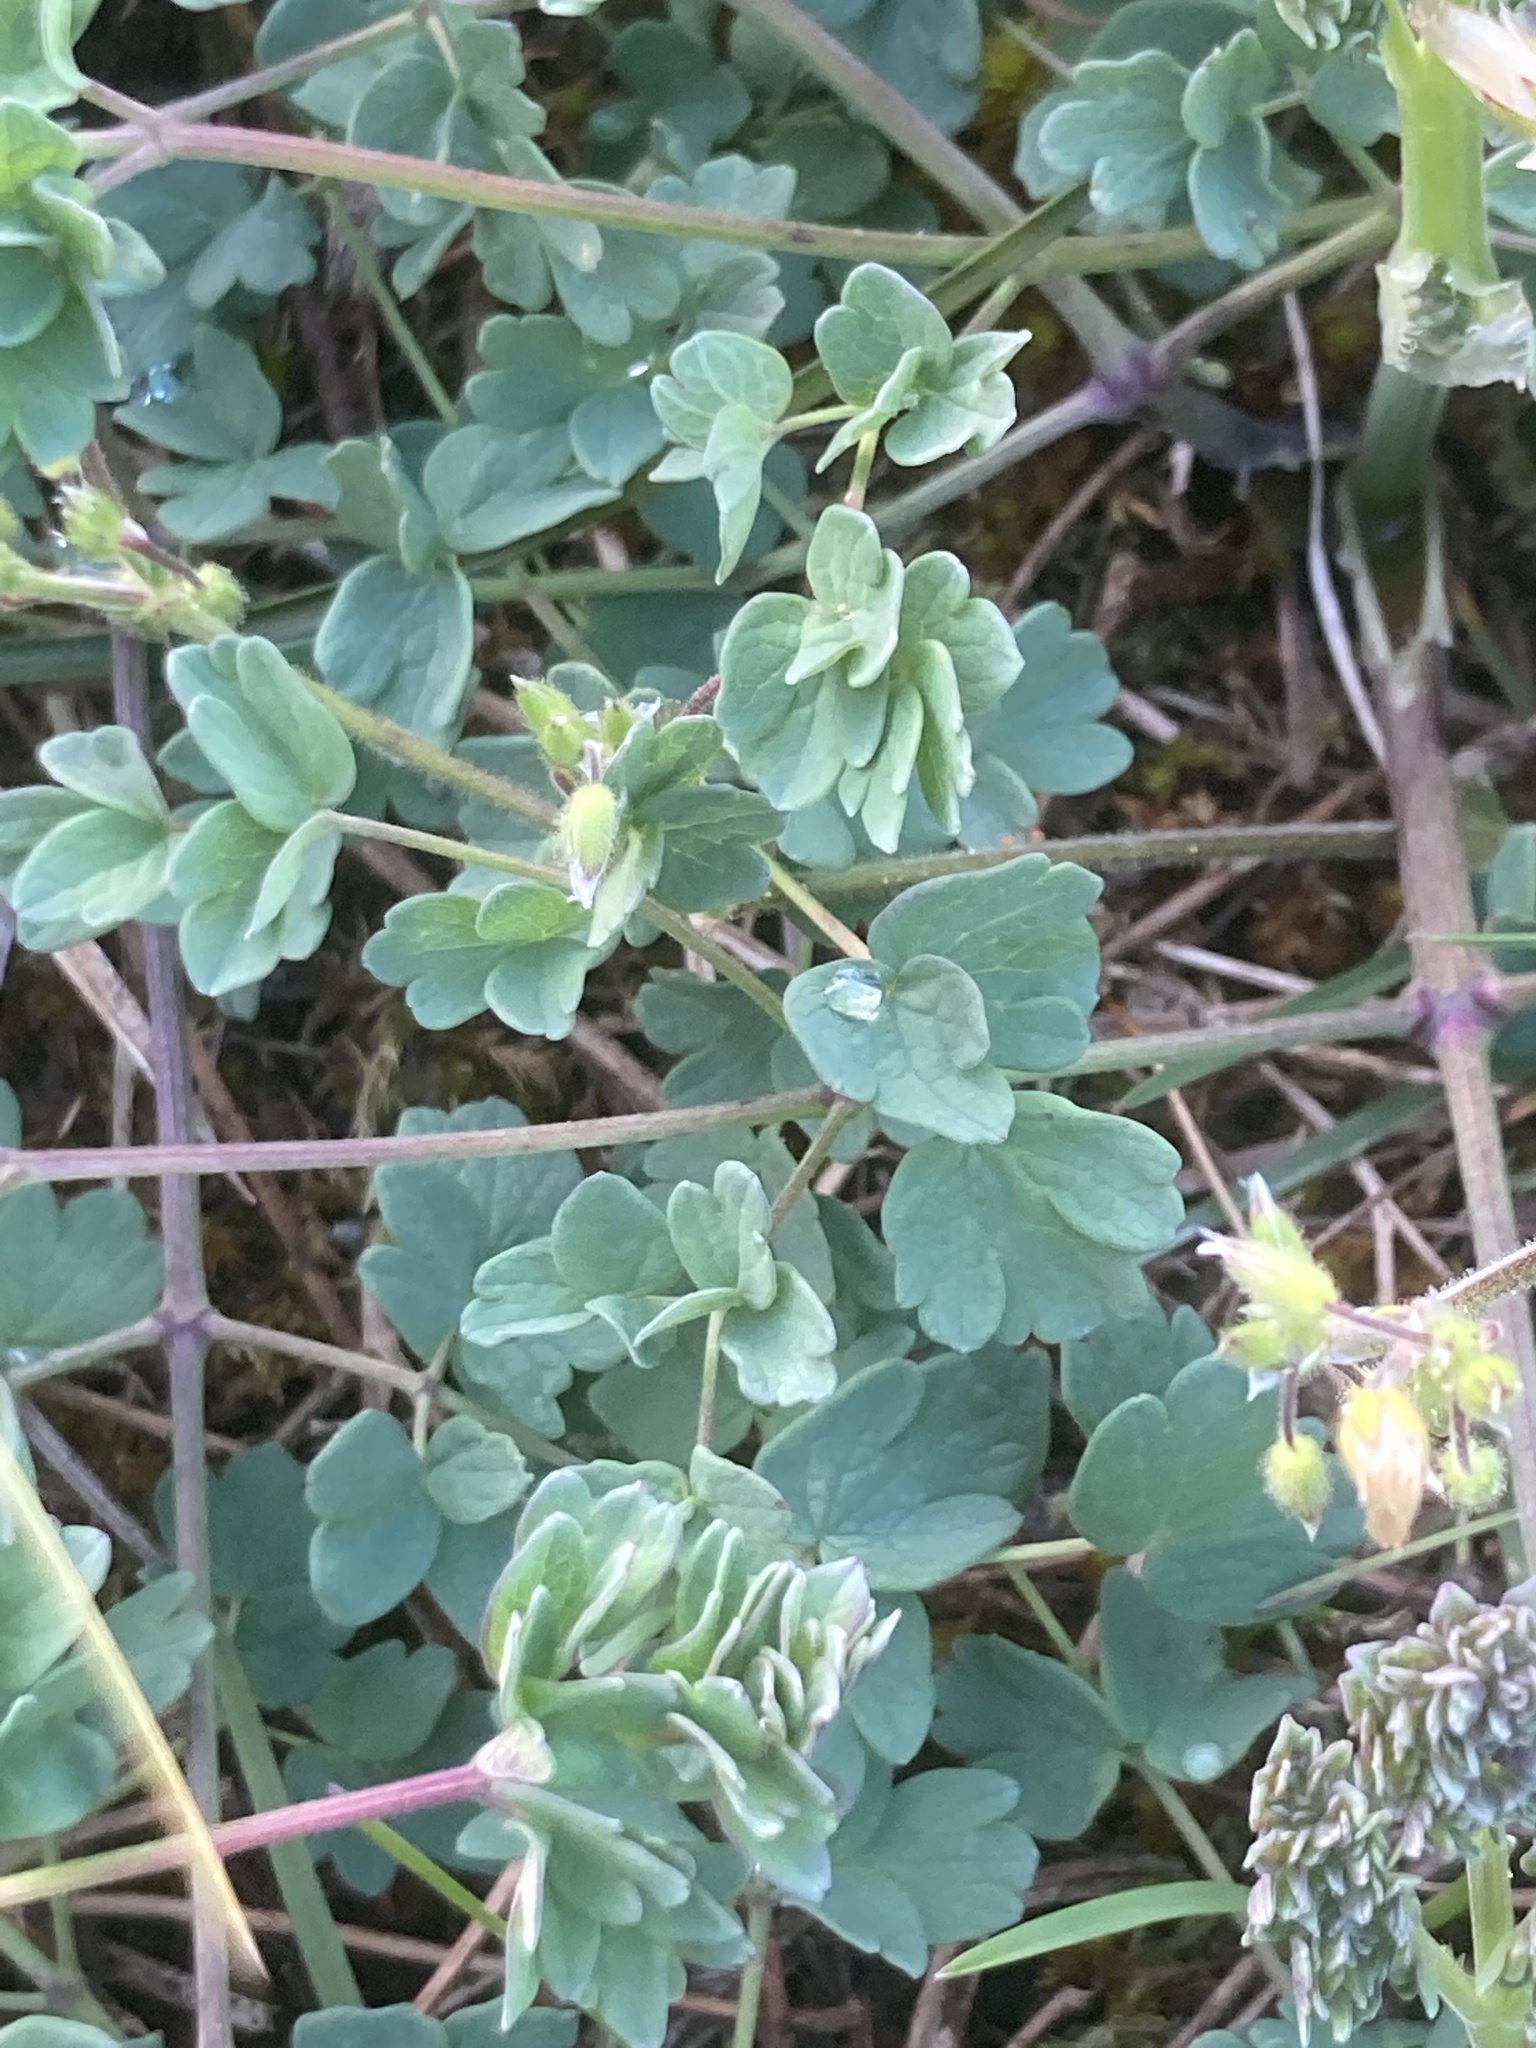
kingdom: Plantae
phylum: Tracheophyta
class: Magnoliopsida
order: Ranunculales
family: Ranunculaceae
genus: Thalictrum
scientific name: Thalictrum minus
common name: Lesser meadow-rue
